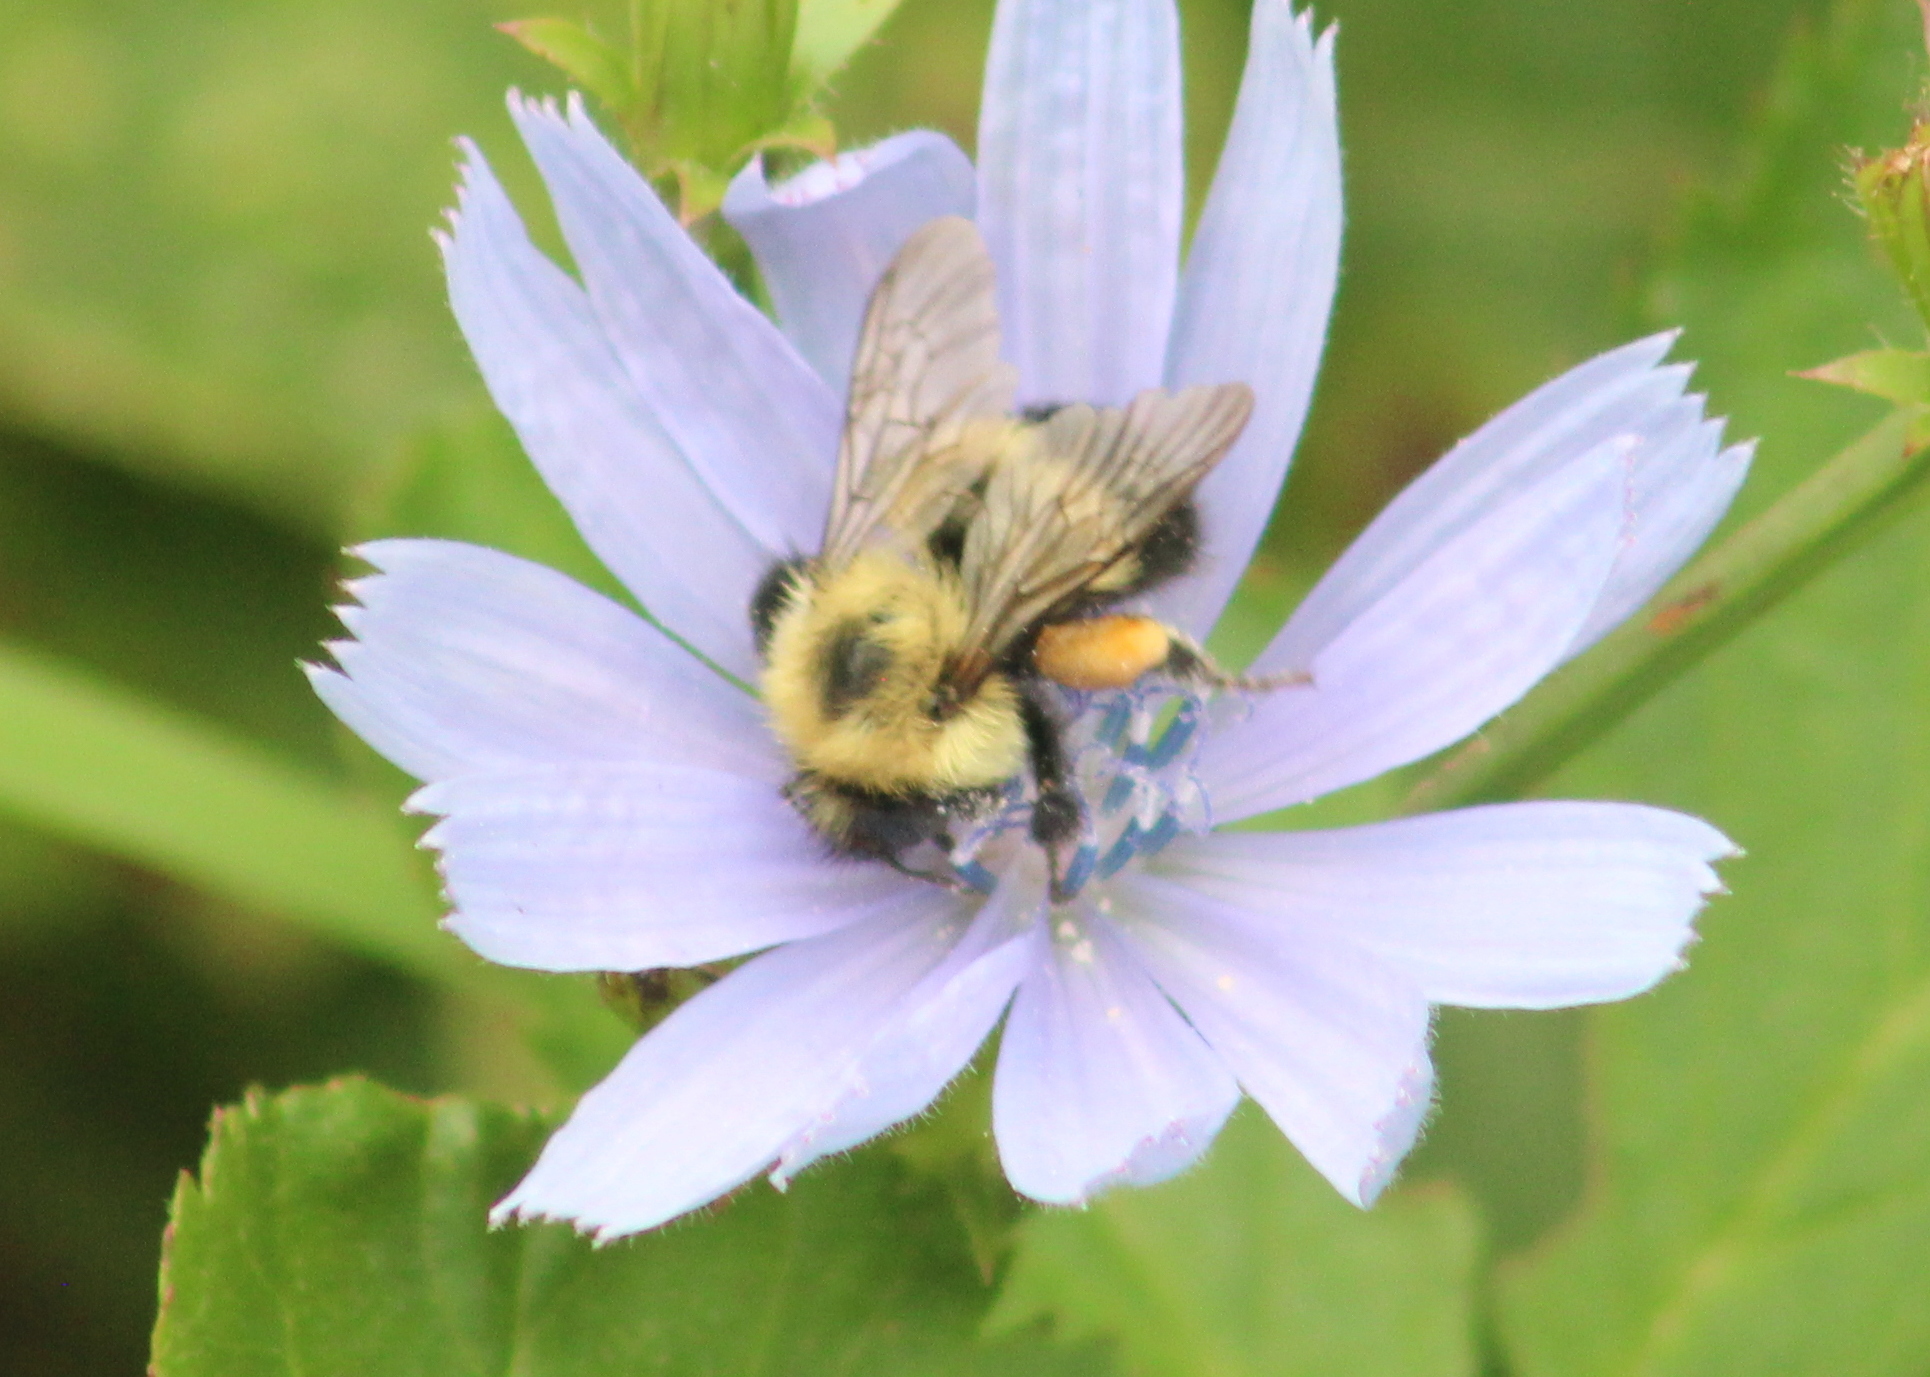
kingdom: Animalia
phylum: Arthropoda
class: Insecta
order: Hymenoptera
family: Apidae
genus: Pyrobombus
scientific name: Pyrobombus
